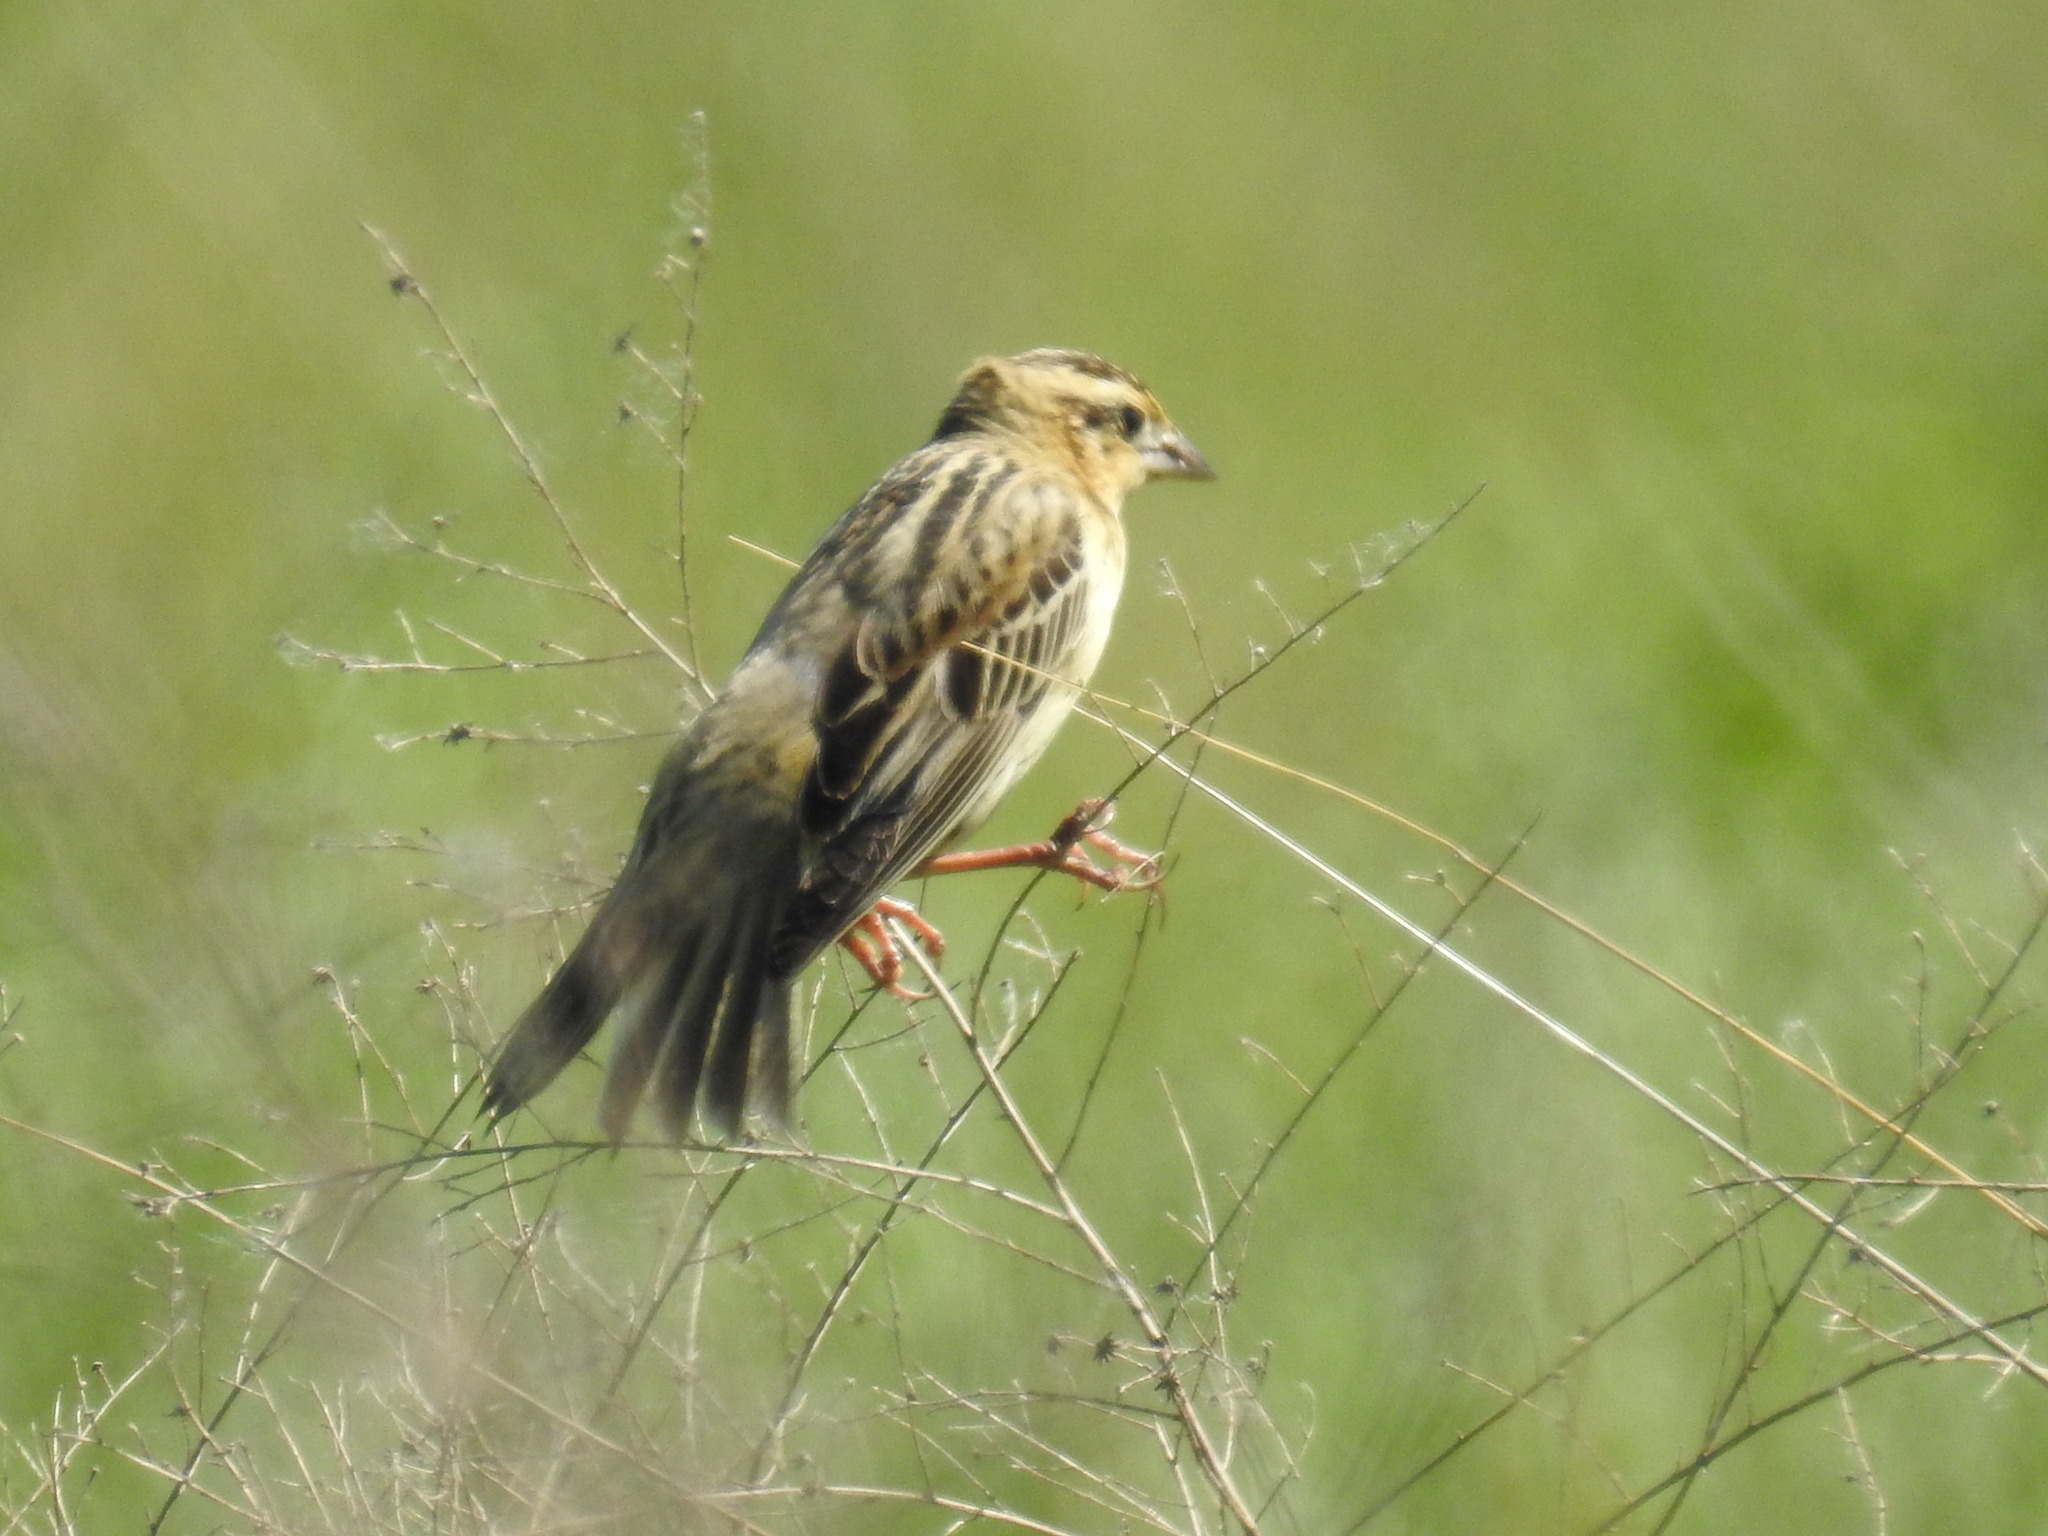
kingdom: Animalia
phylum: Chordata
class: Aves
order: Passeriformes
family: Icteridae
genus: Dolichonyx
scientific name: Dolichonyx oryzivorus
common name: Bobolink
